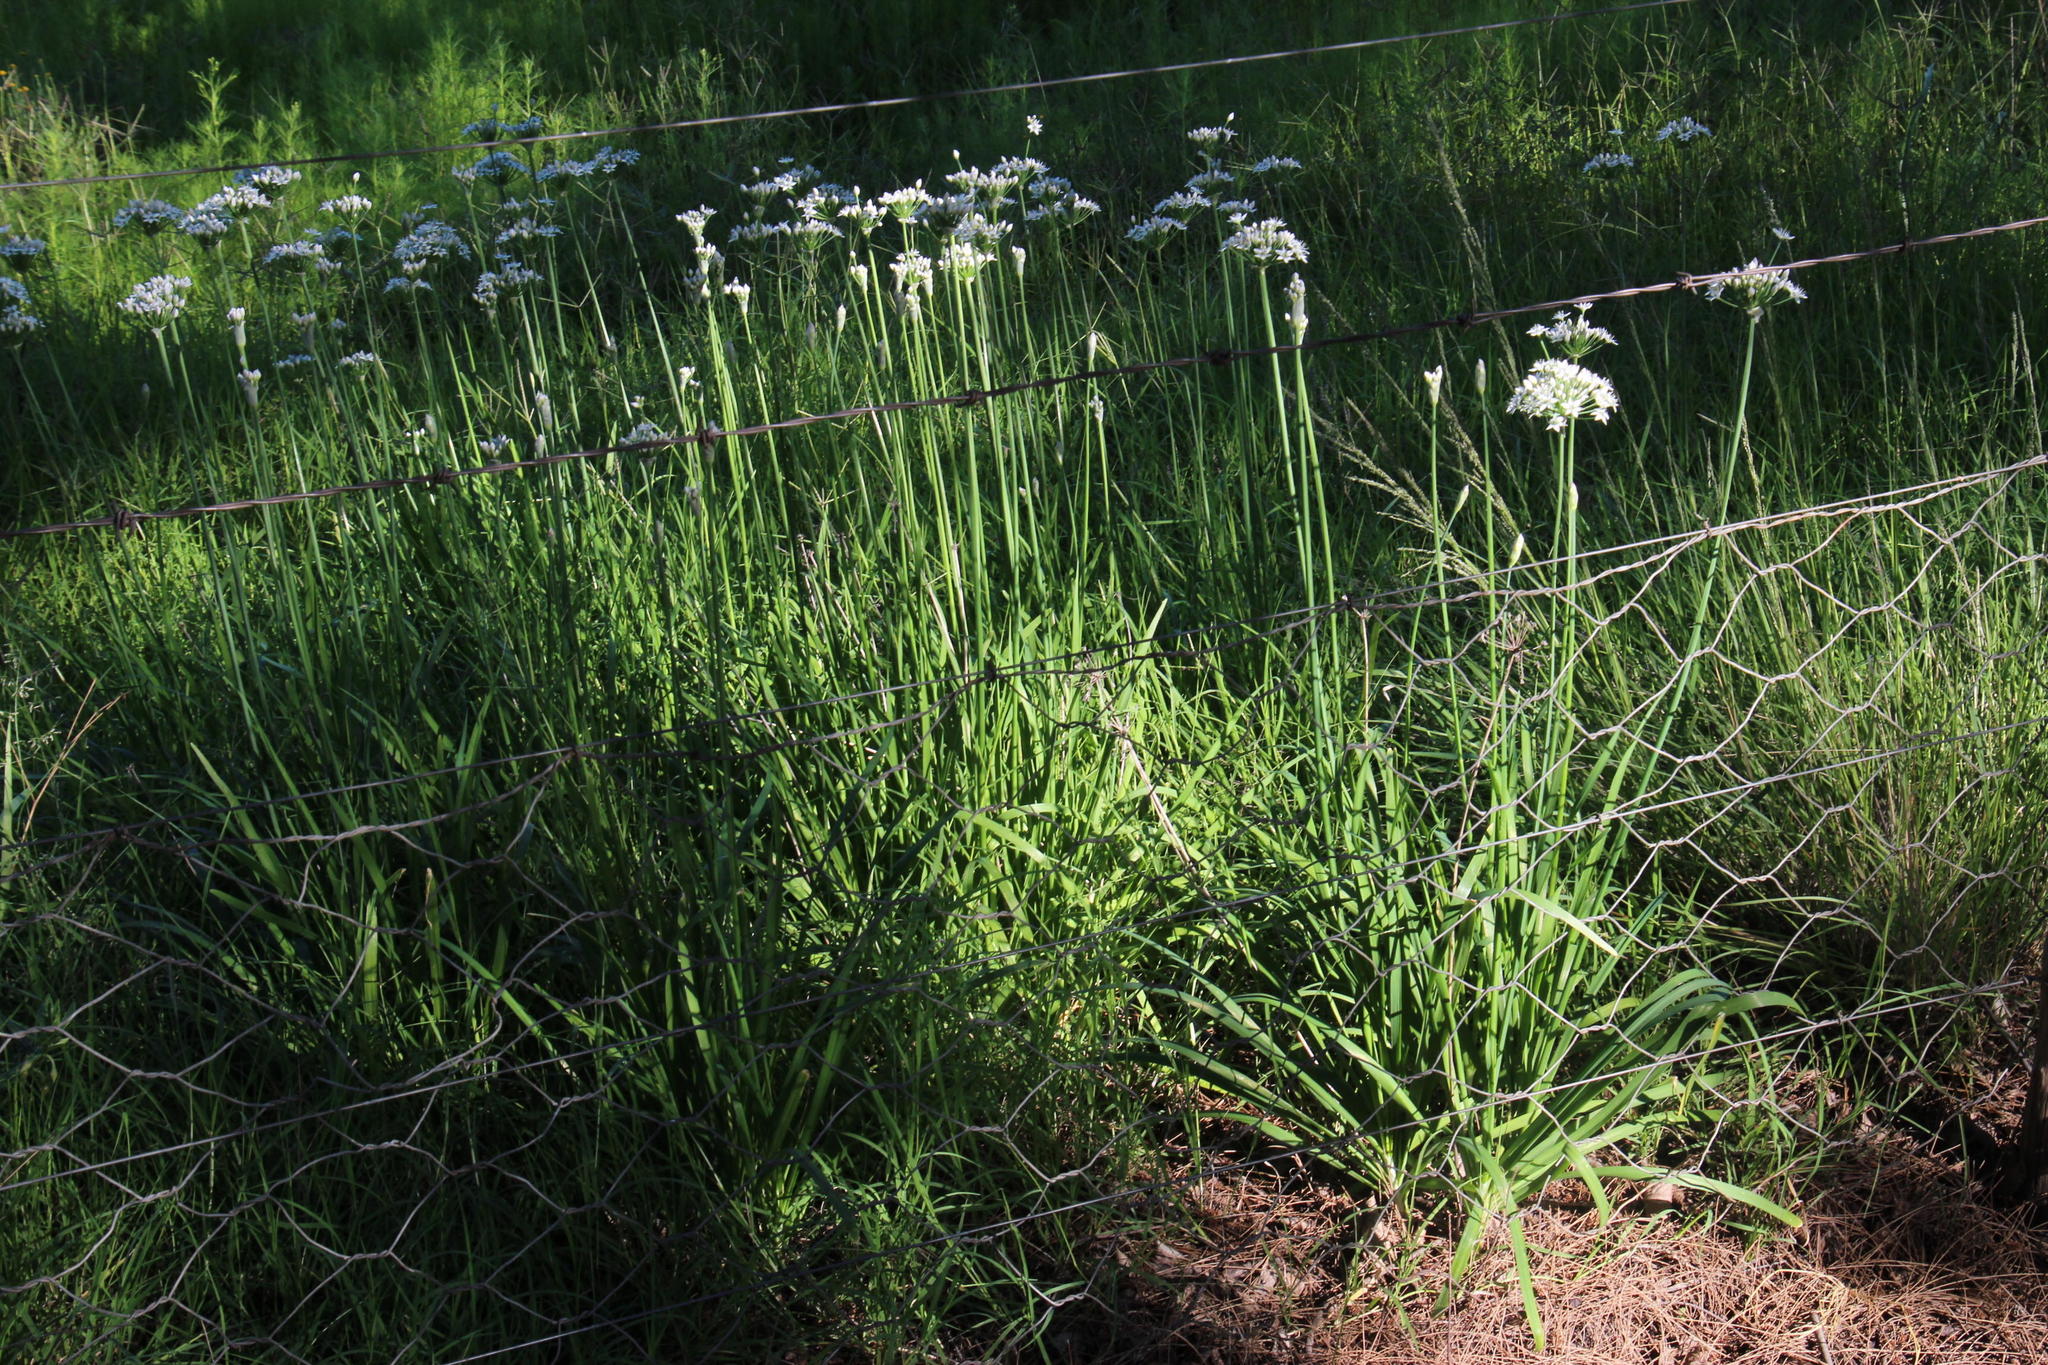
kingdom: Plantae
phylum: Tracheophyta
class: Liliopsida
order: Asparagales
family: Amaryllidaceae
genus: Allium
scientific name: Allium tuberosum
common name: Chinese chives
